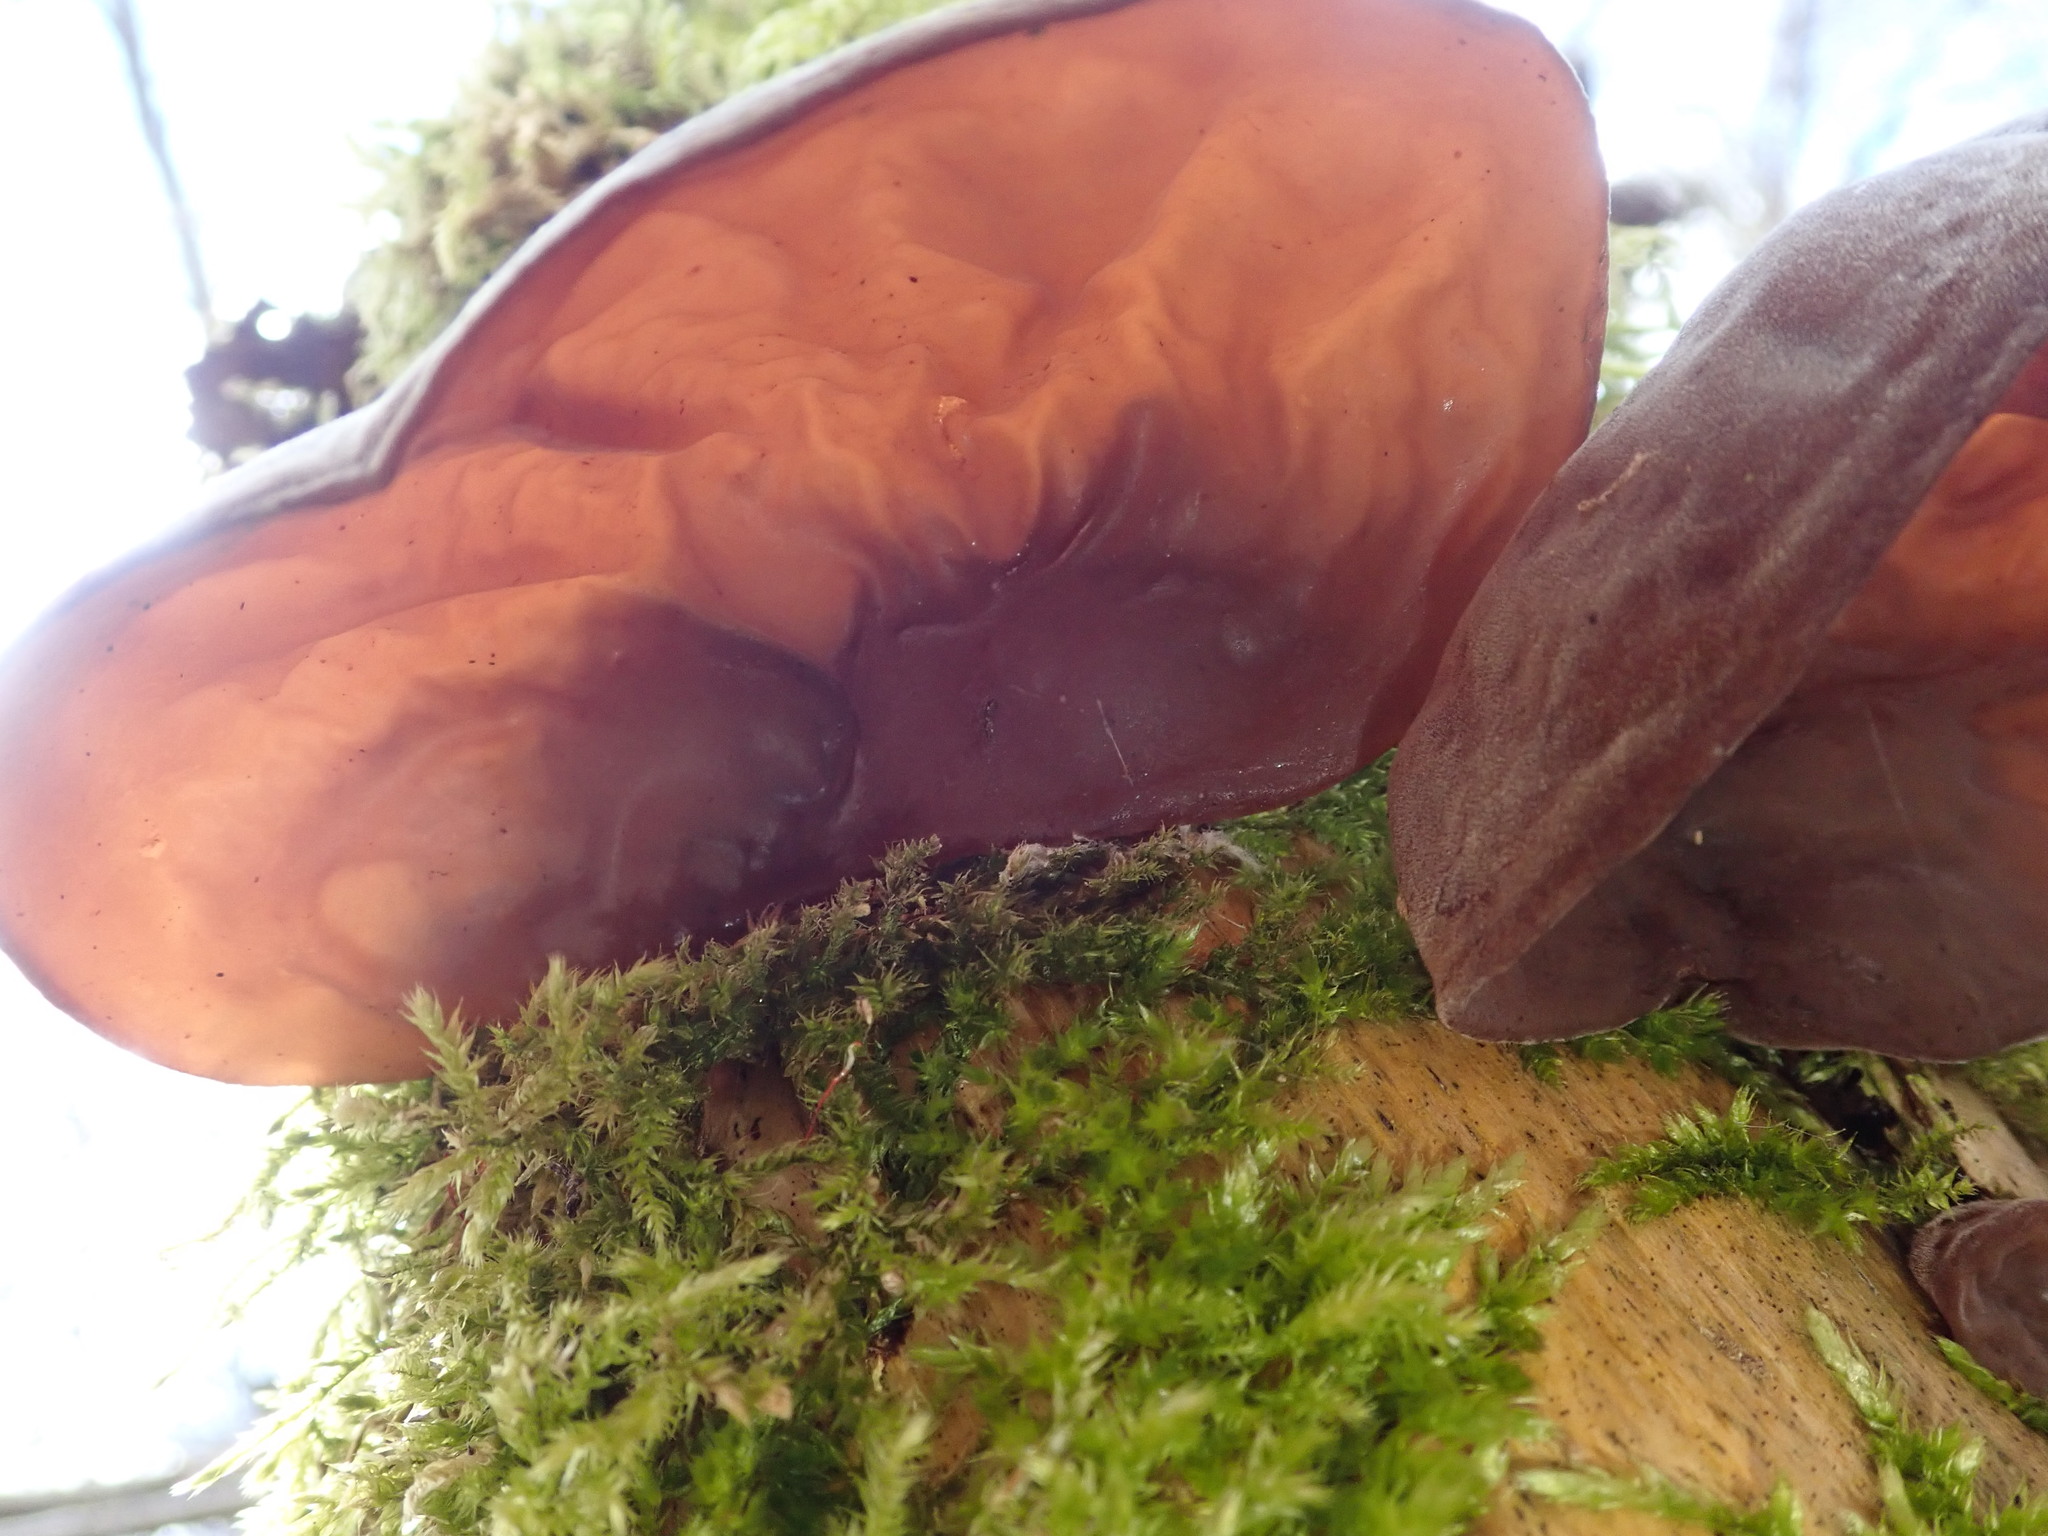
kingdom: Fungi
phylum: Basidiomycota
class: Agaricomycetes
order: Auriculariales
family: Auriculariaceae
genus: Auricularia
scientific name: Auricularia auricula-judae
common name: Jelly ear
